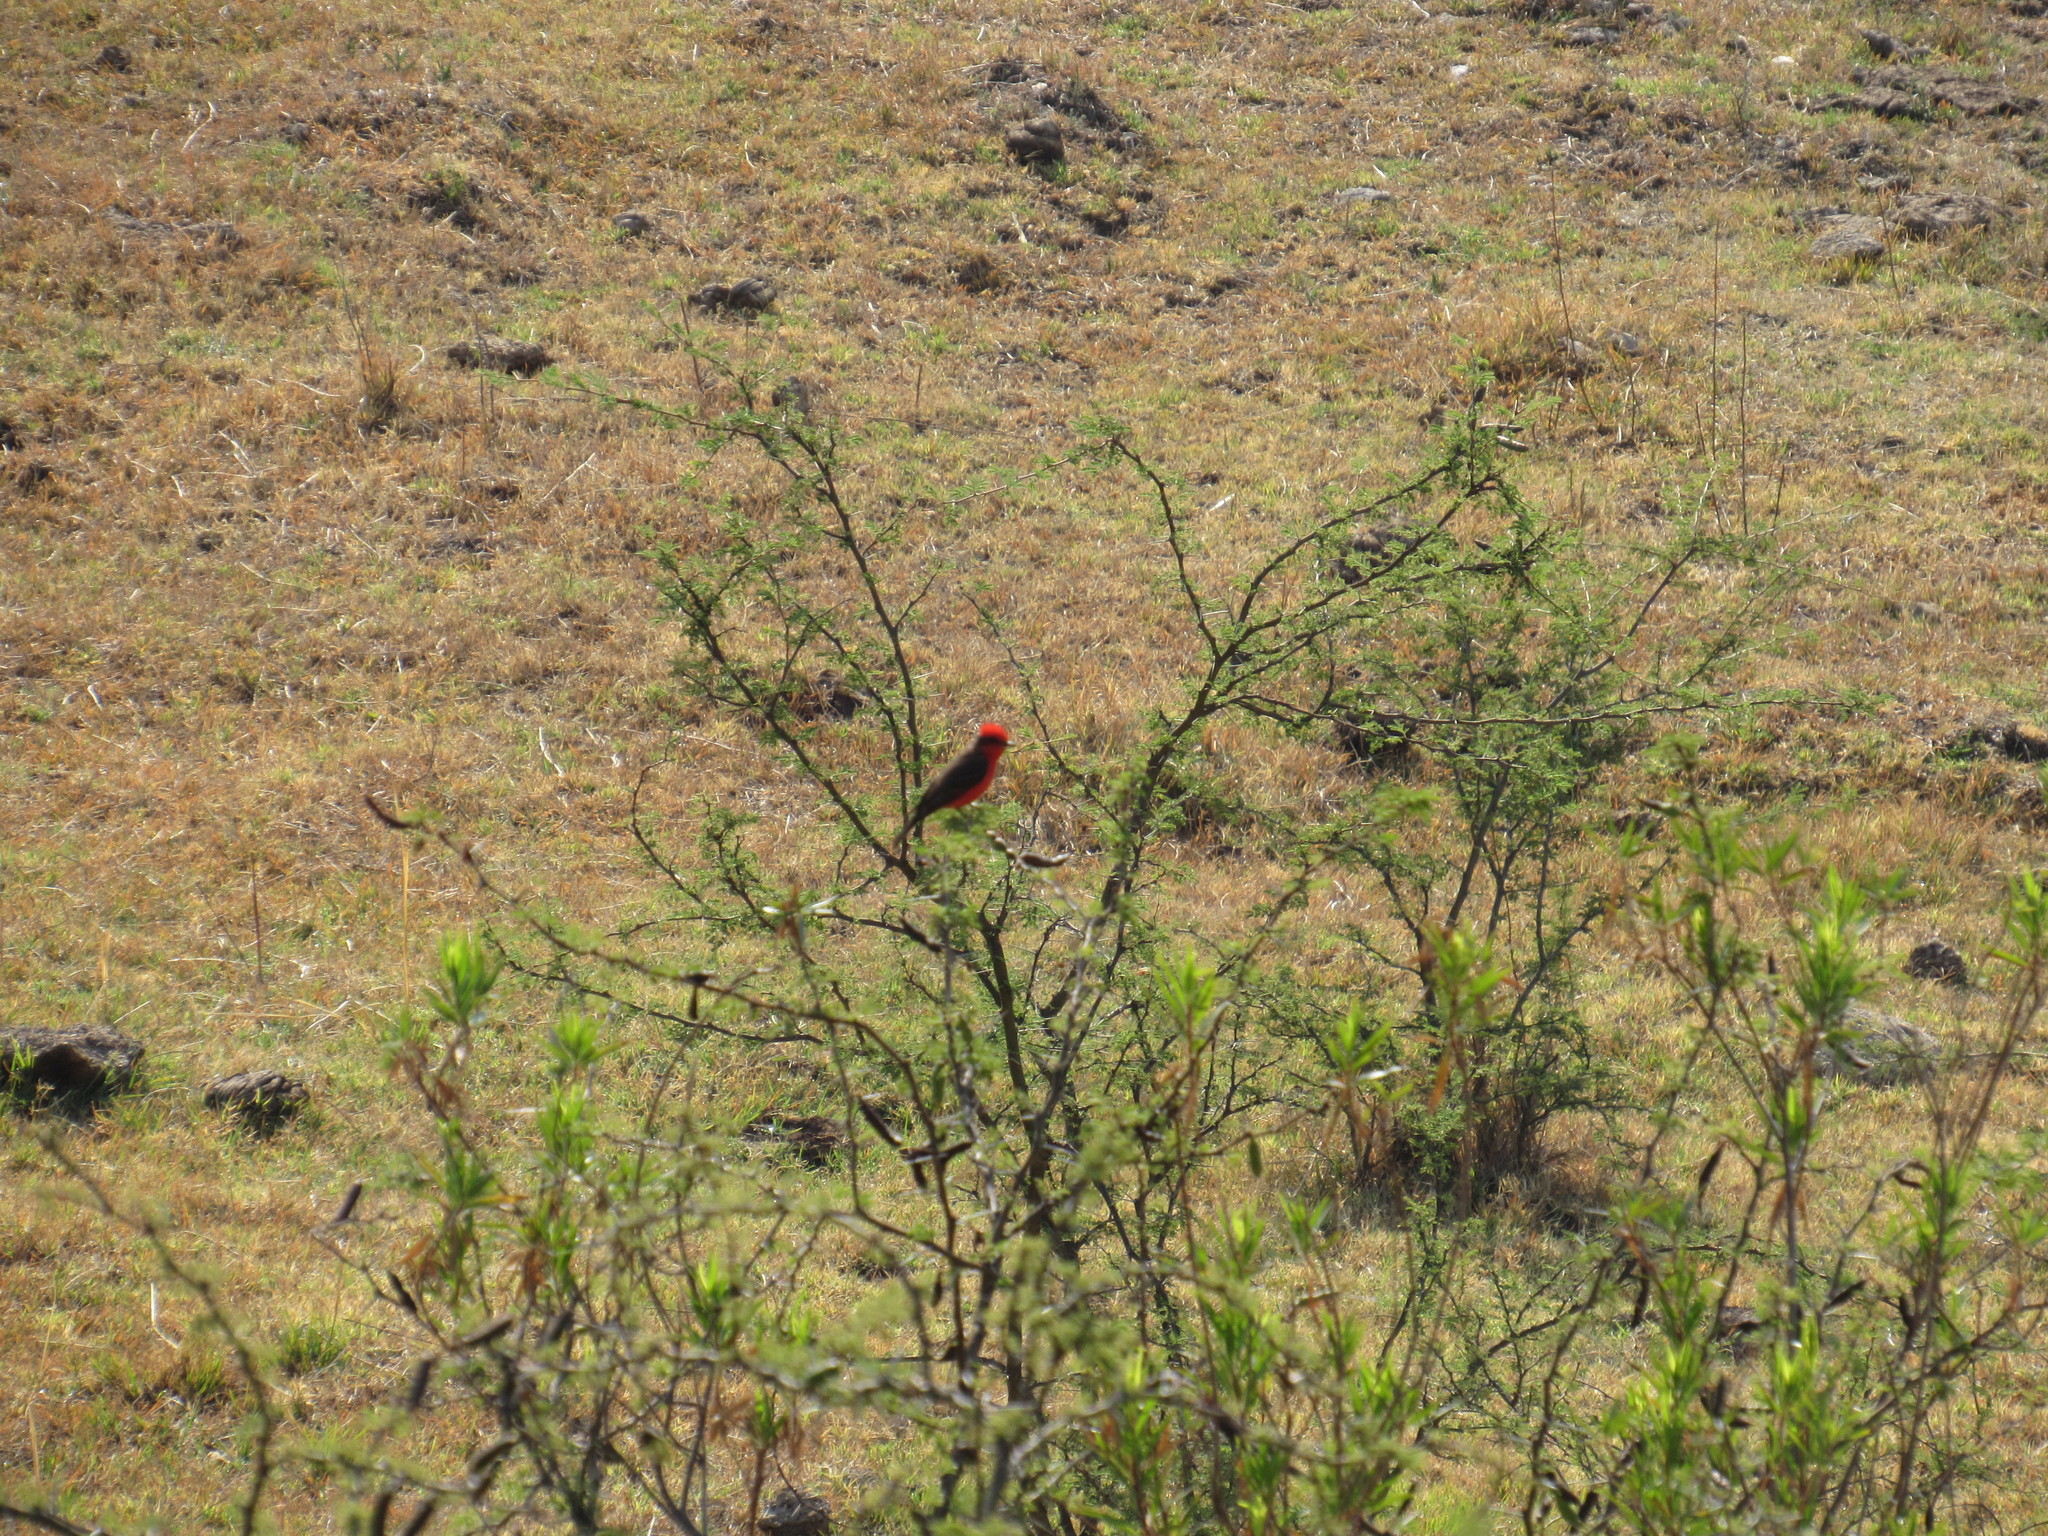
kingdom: Animalia
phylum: Chordata
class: Aves
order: Passeriformes
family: Tyrannidae
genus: Pyrocephalus
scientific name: Pyrocephalus rubinus
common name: Vermilion flycatcher
